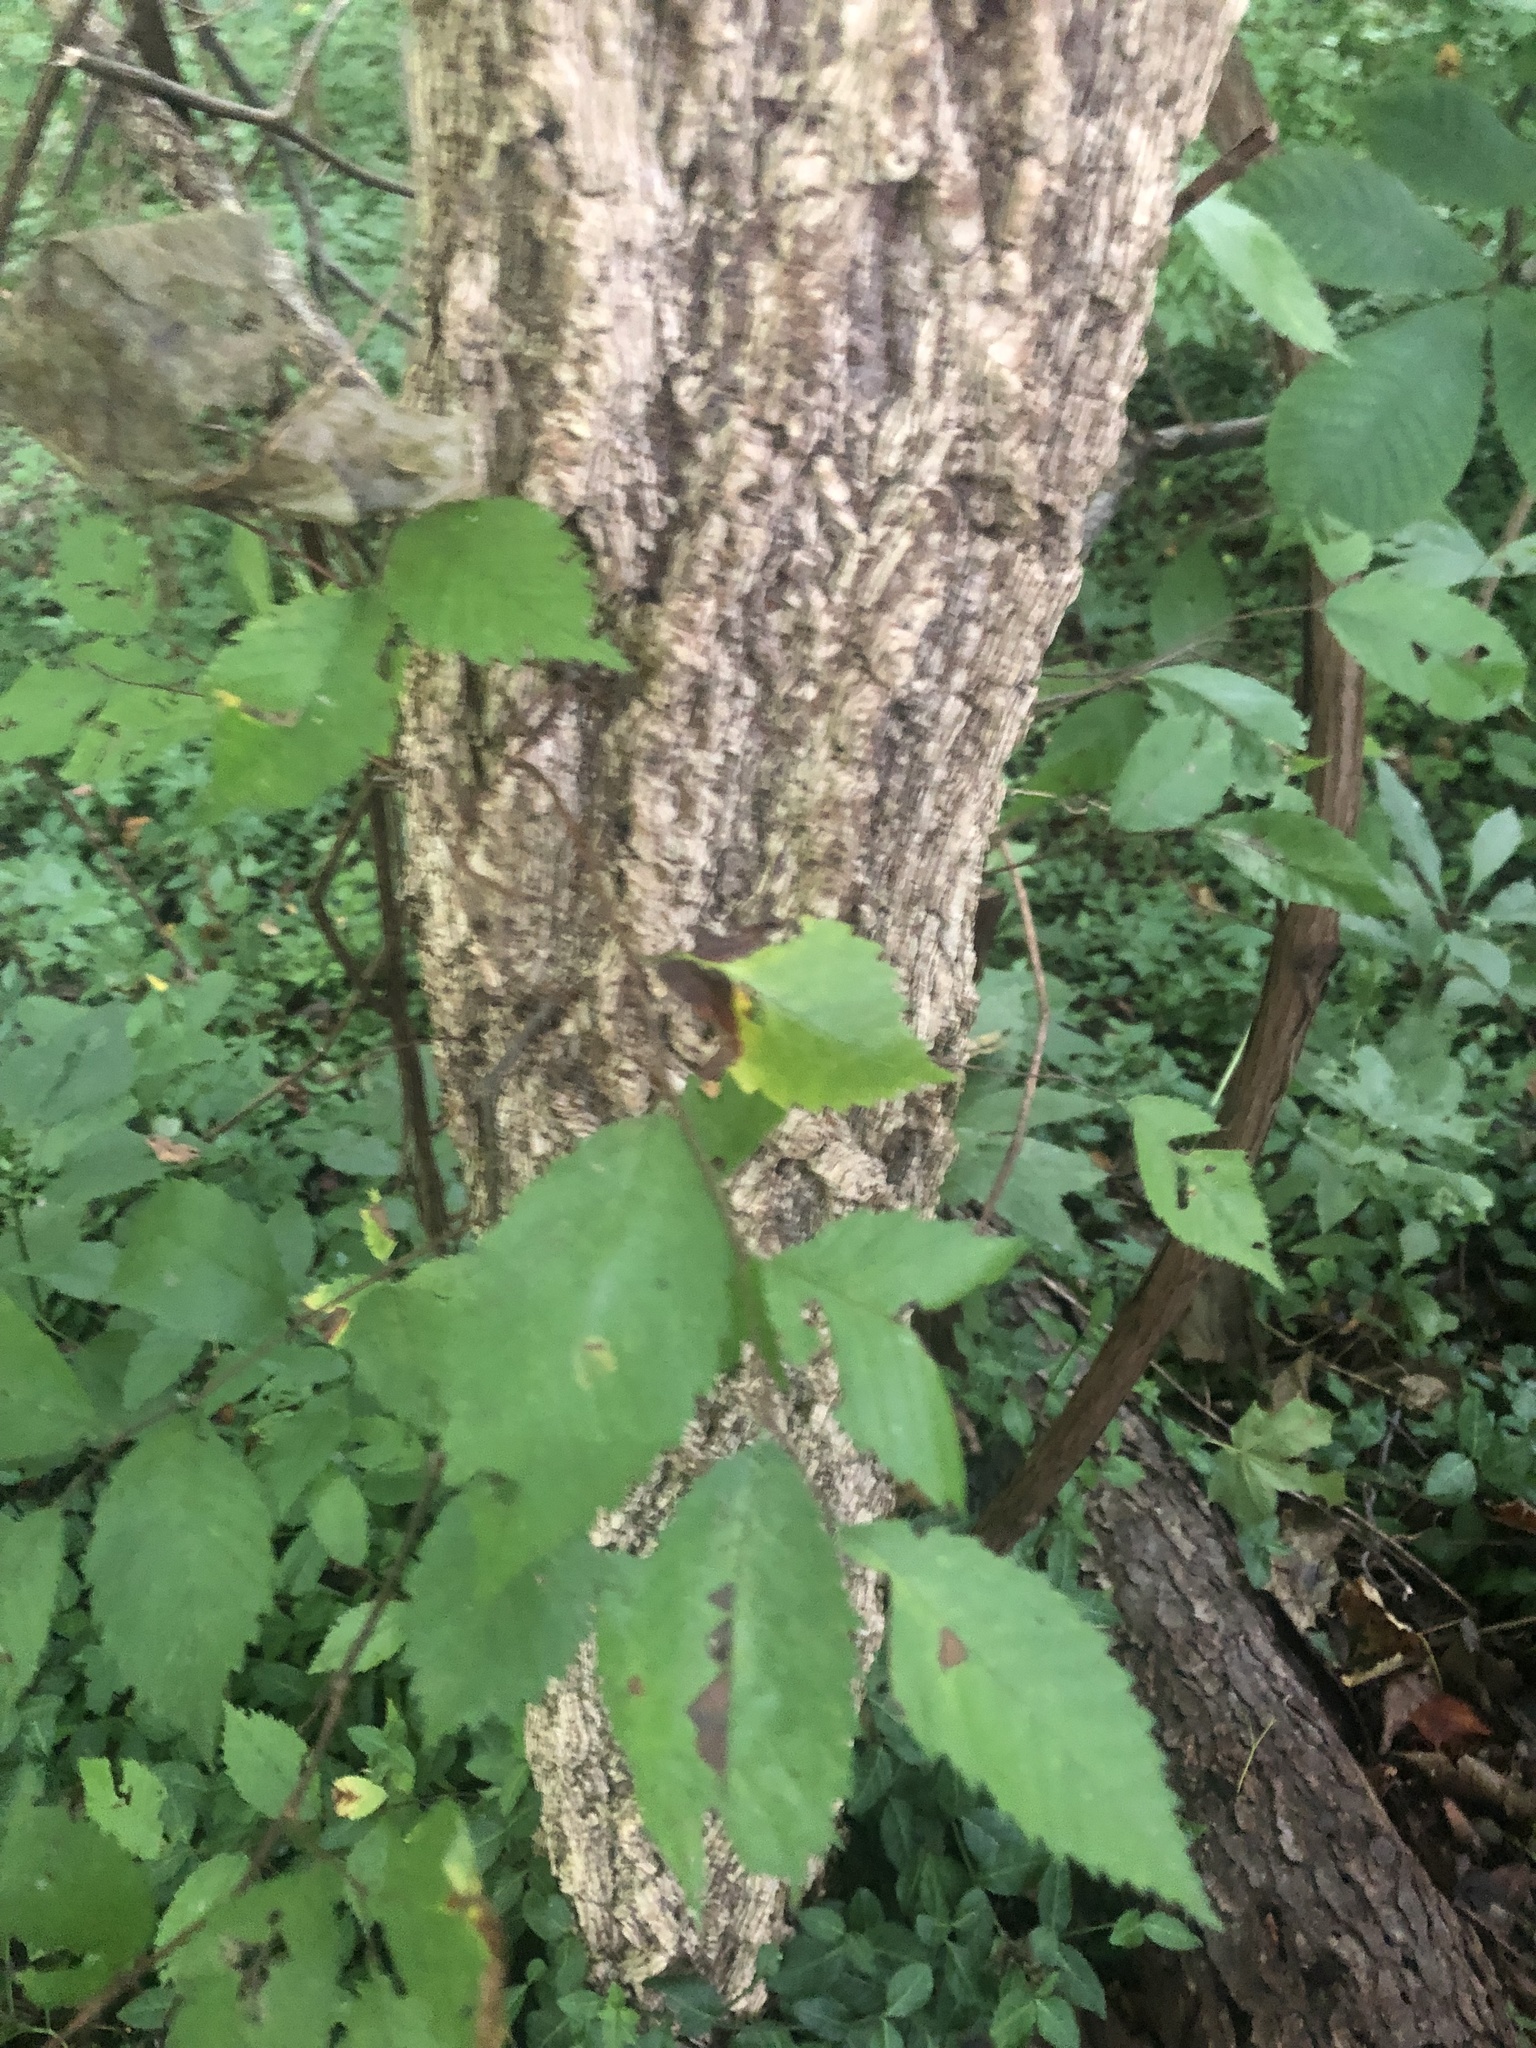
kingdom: Plantae
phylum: Tracheophyta
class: Magnoliopsida
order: Rosales
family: Ulmaceae
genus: Ulmus
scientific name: Ulmus americana
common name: American elm
